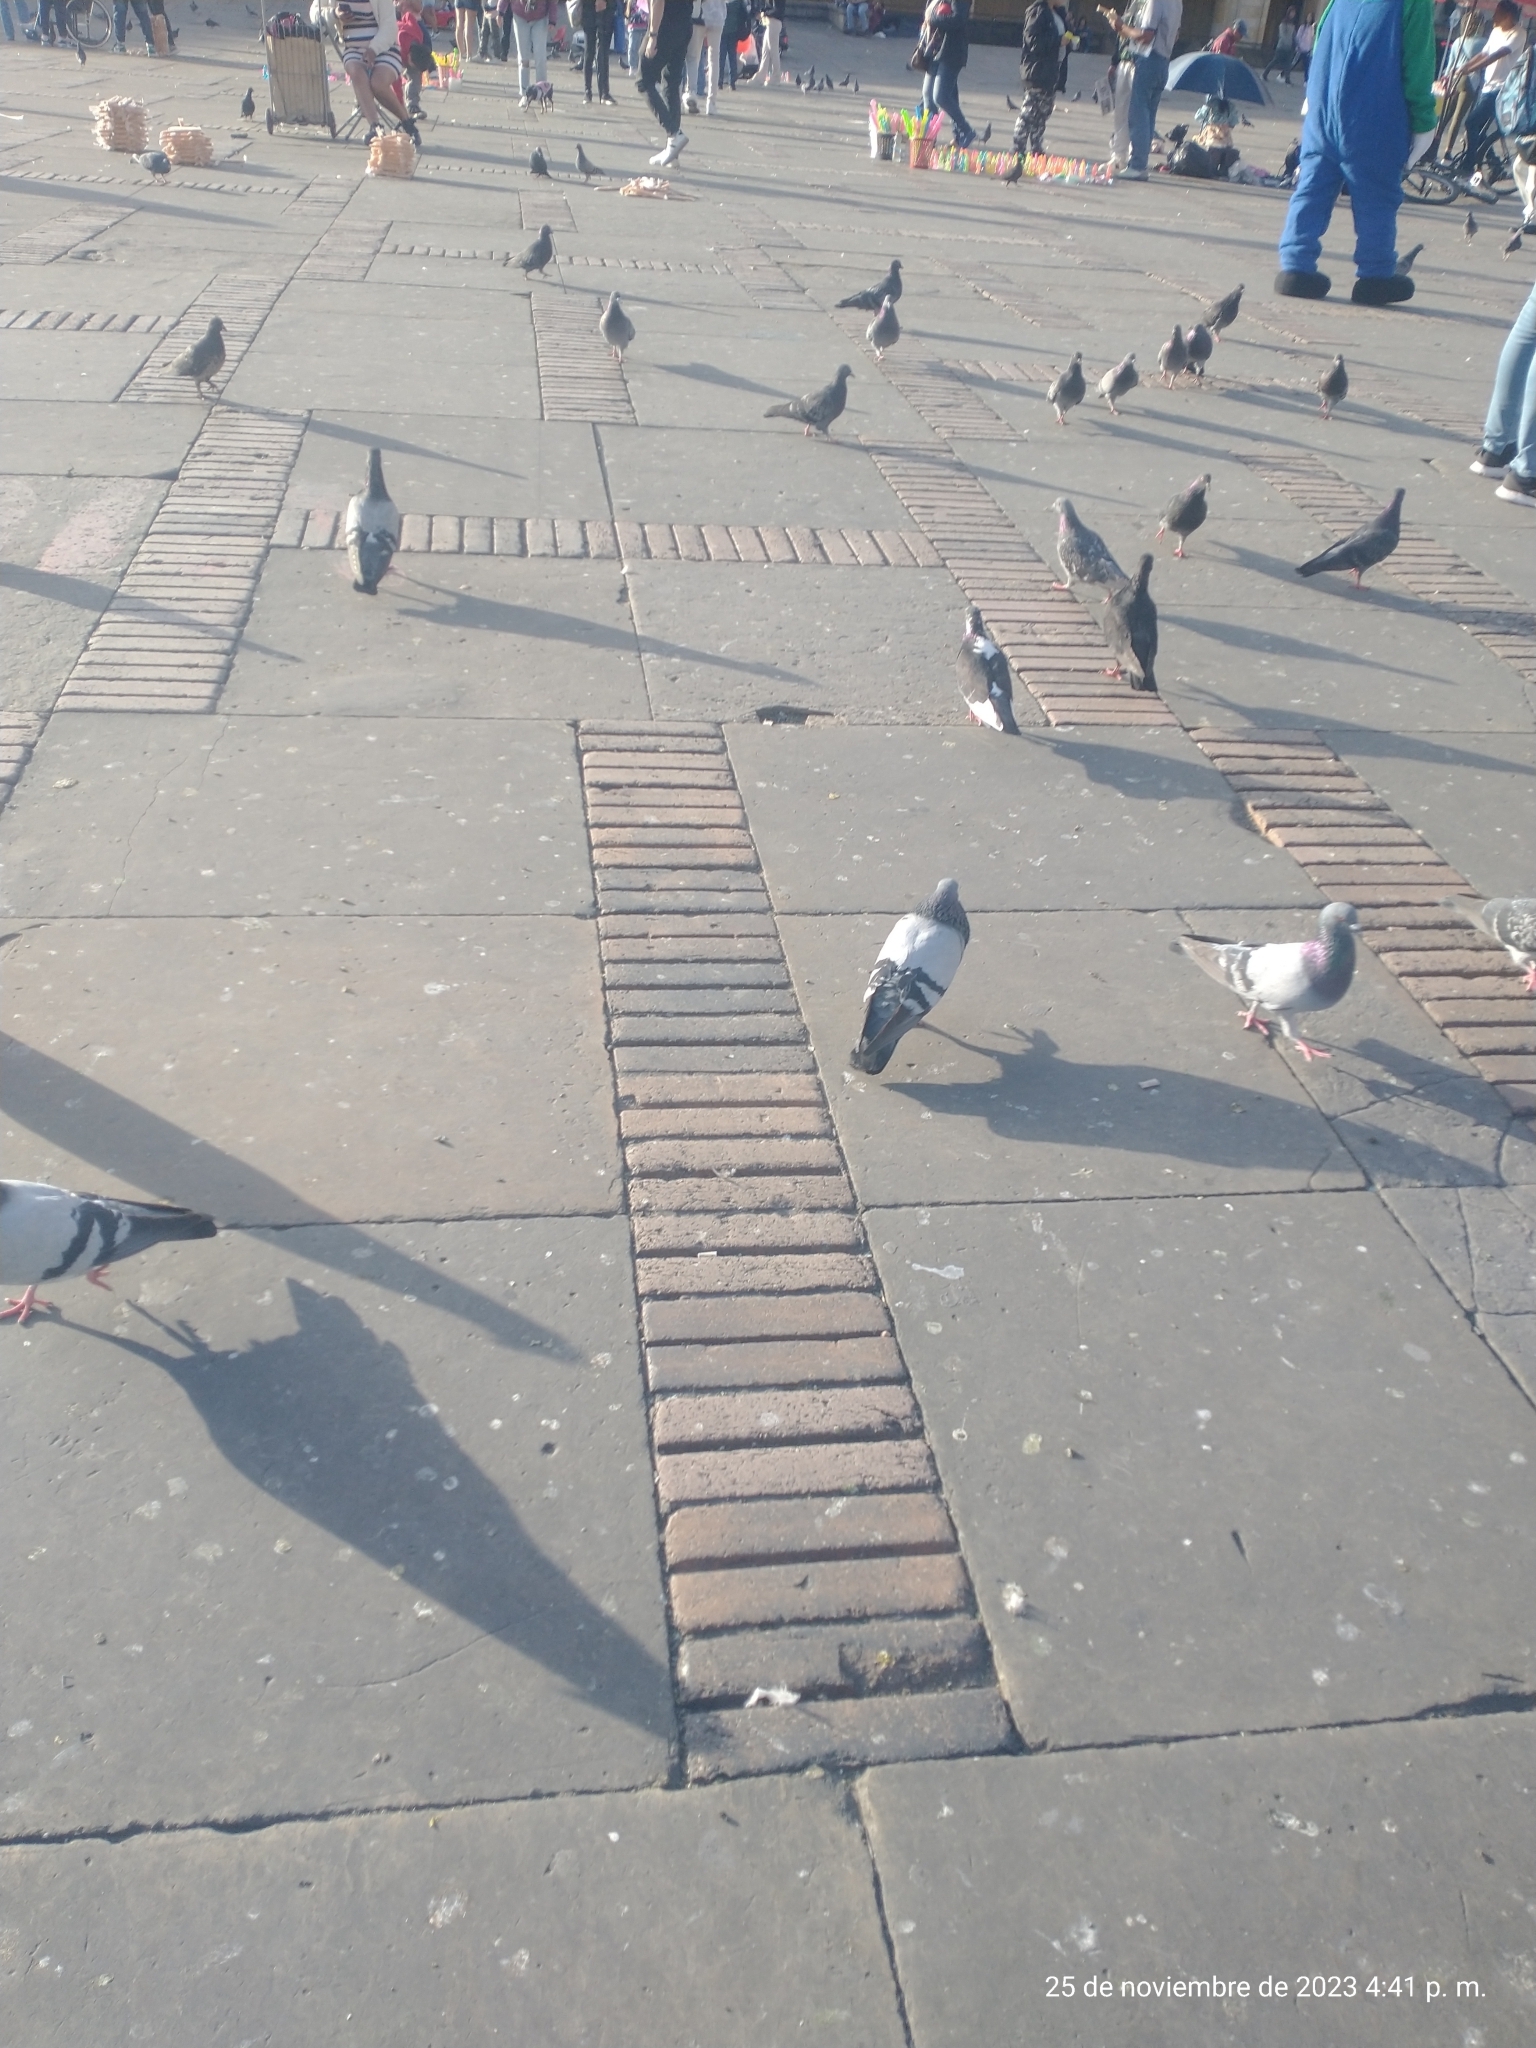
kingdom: Animalia
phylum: Chordata
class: Aves
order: Columbiformes
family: Columbidae
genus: Columba
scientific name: Columba livia
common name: Rock pigeon
